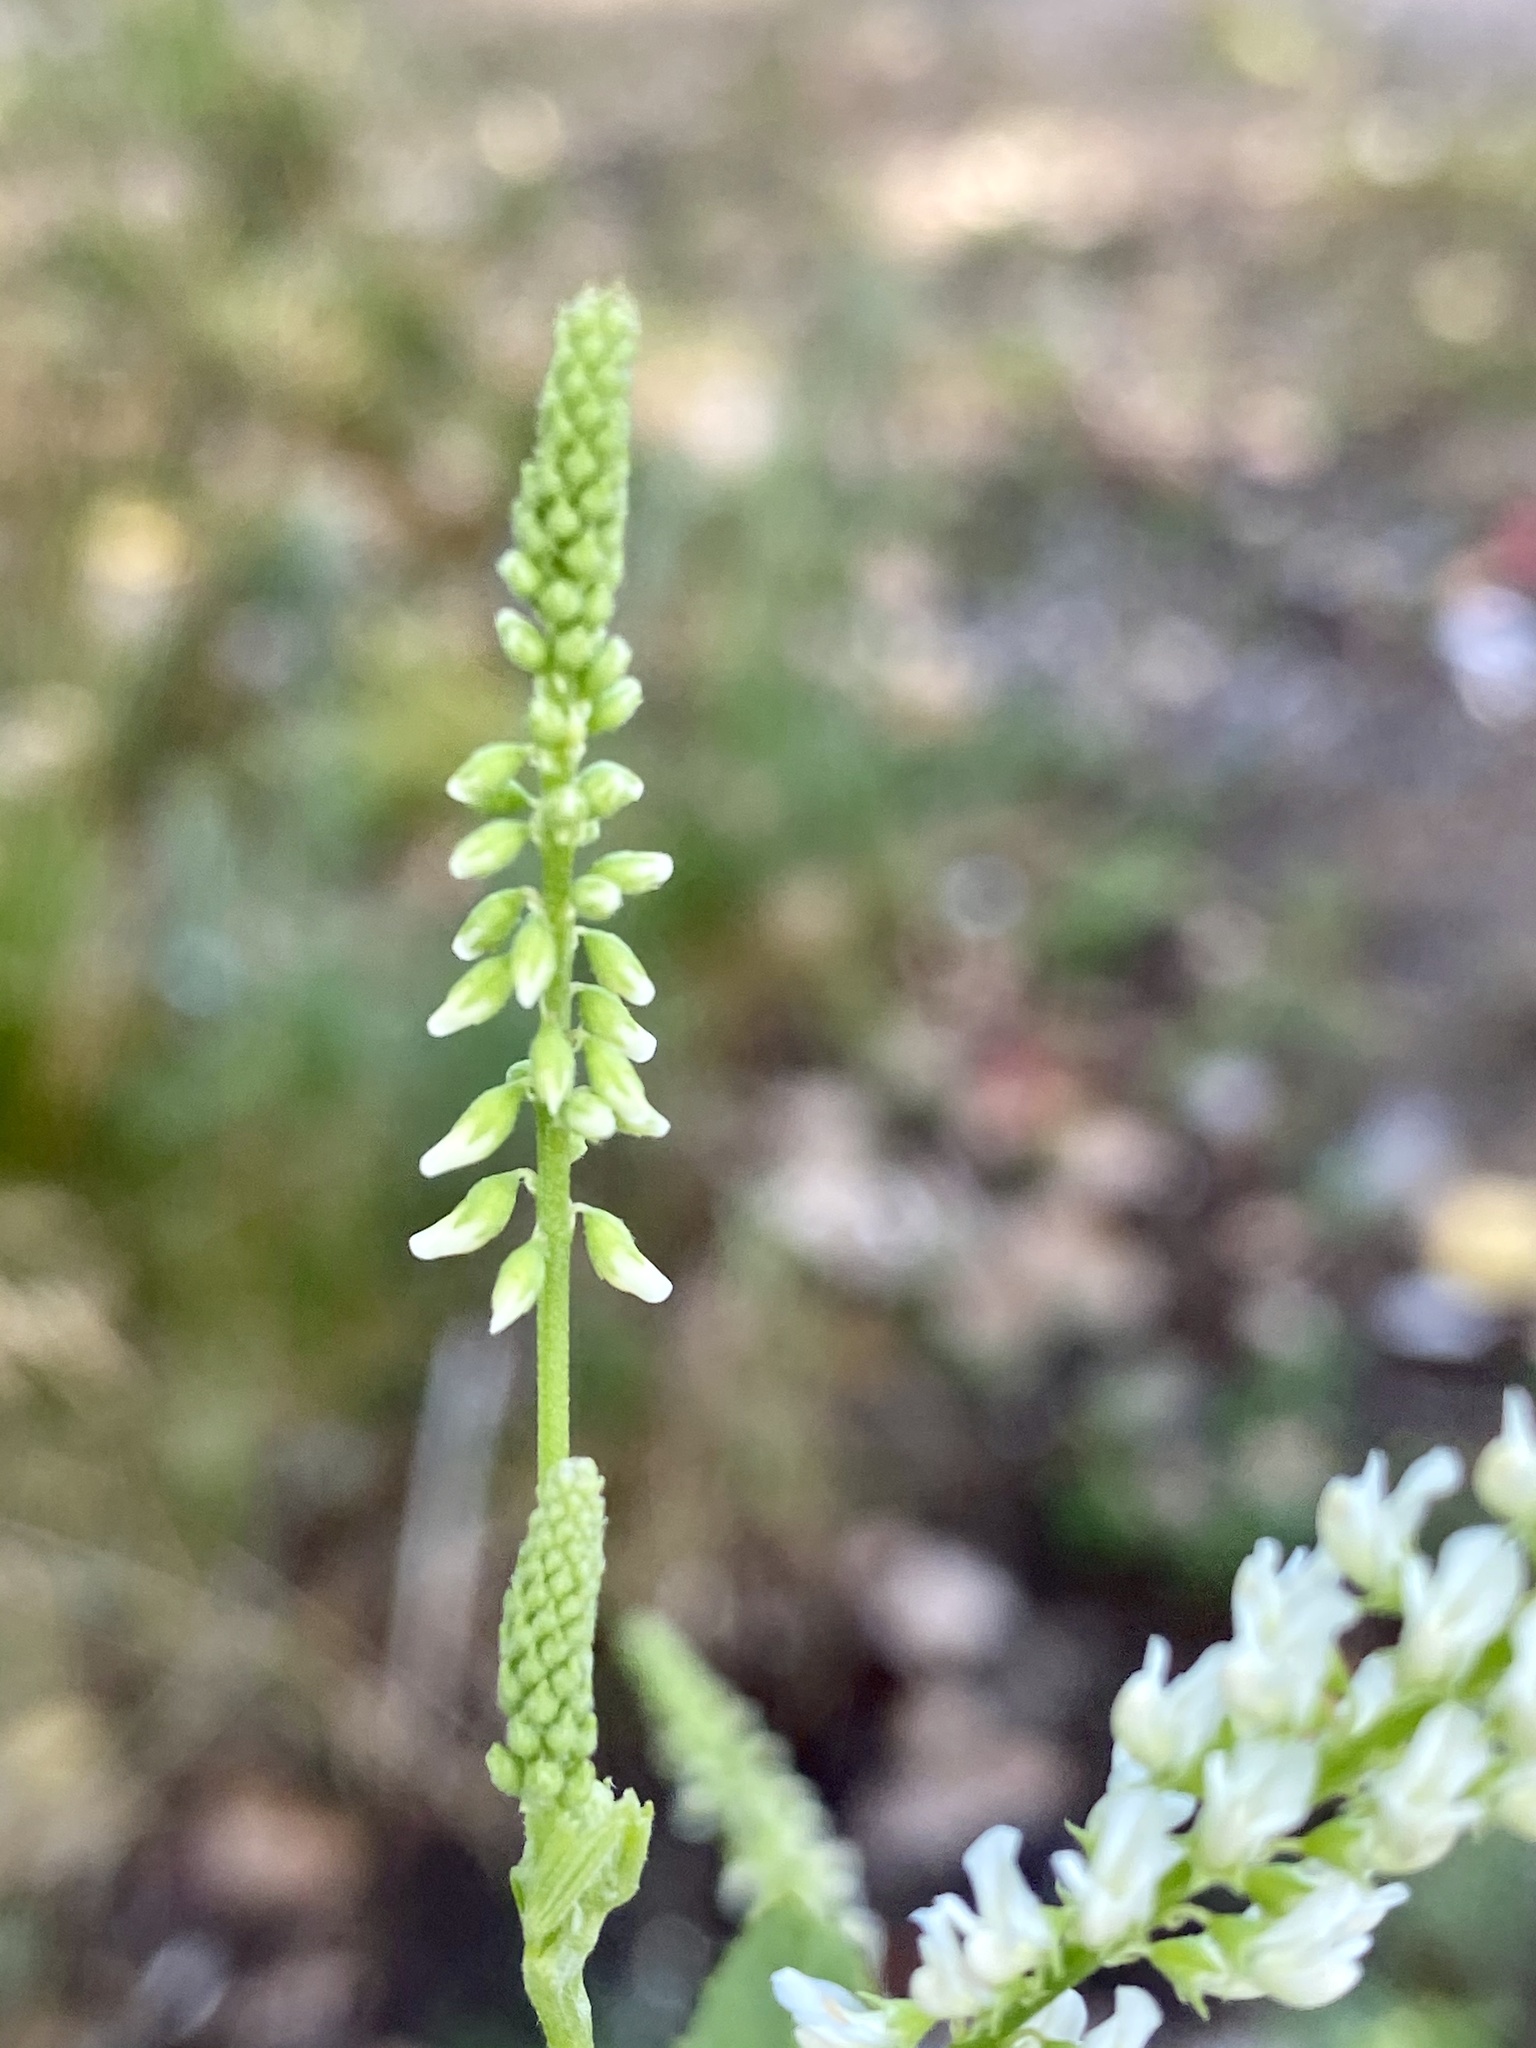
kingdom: Plantae
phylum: Tracheophyta
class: Magnoliopsida
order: Fabales
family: Fabaceae
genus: Melilotus
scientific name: Melilotus albus
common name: White melilot
